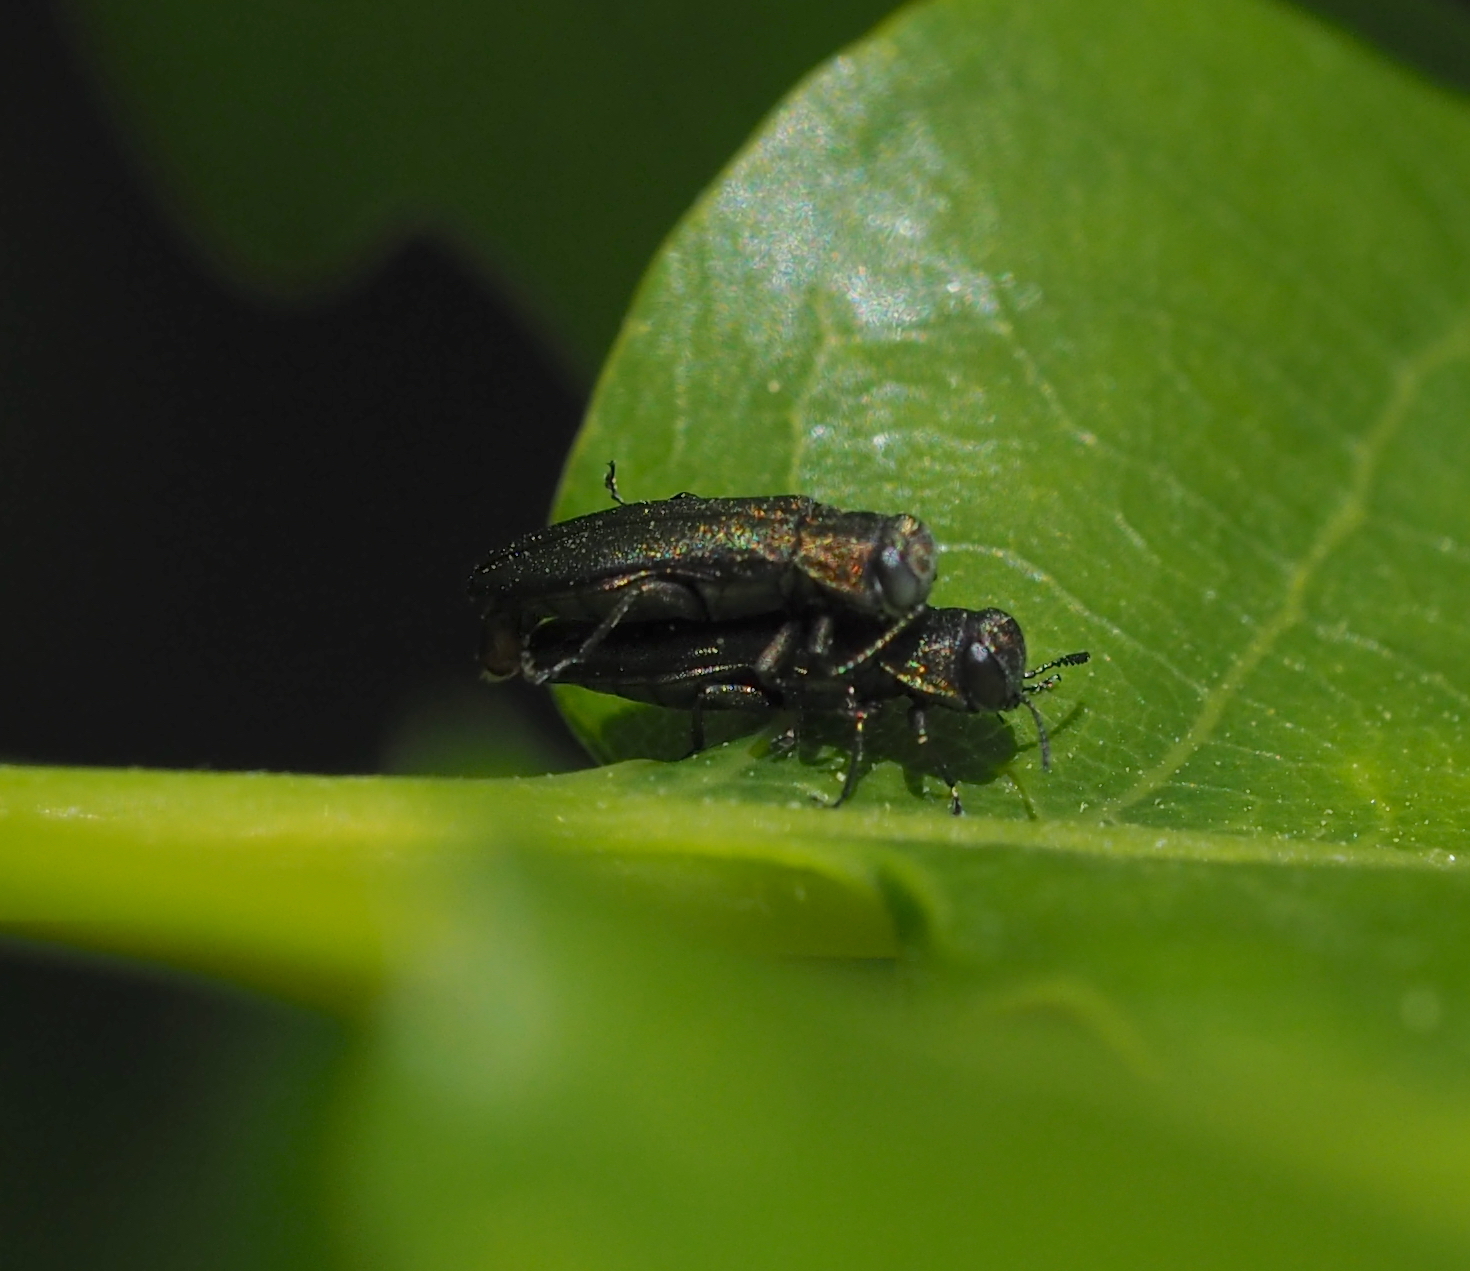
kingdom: Animalia
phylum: Arthropoda
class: Insecta
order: Coleoptera
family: Buprestidae
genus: Agrilus
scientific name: Agrilus angustulus
